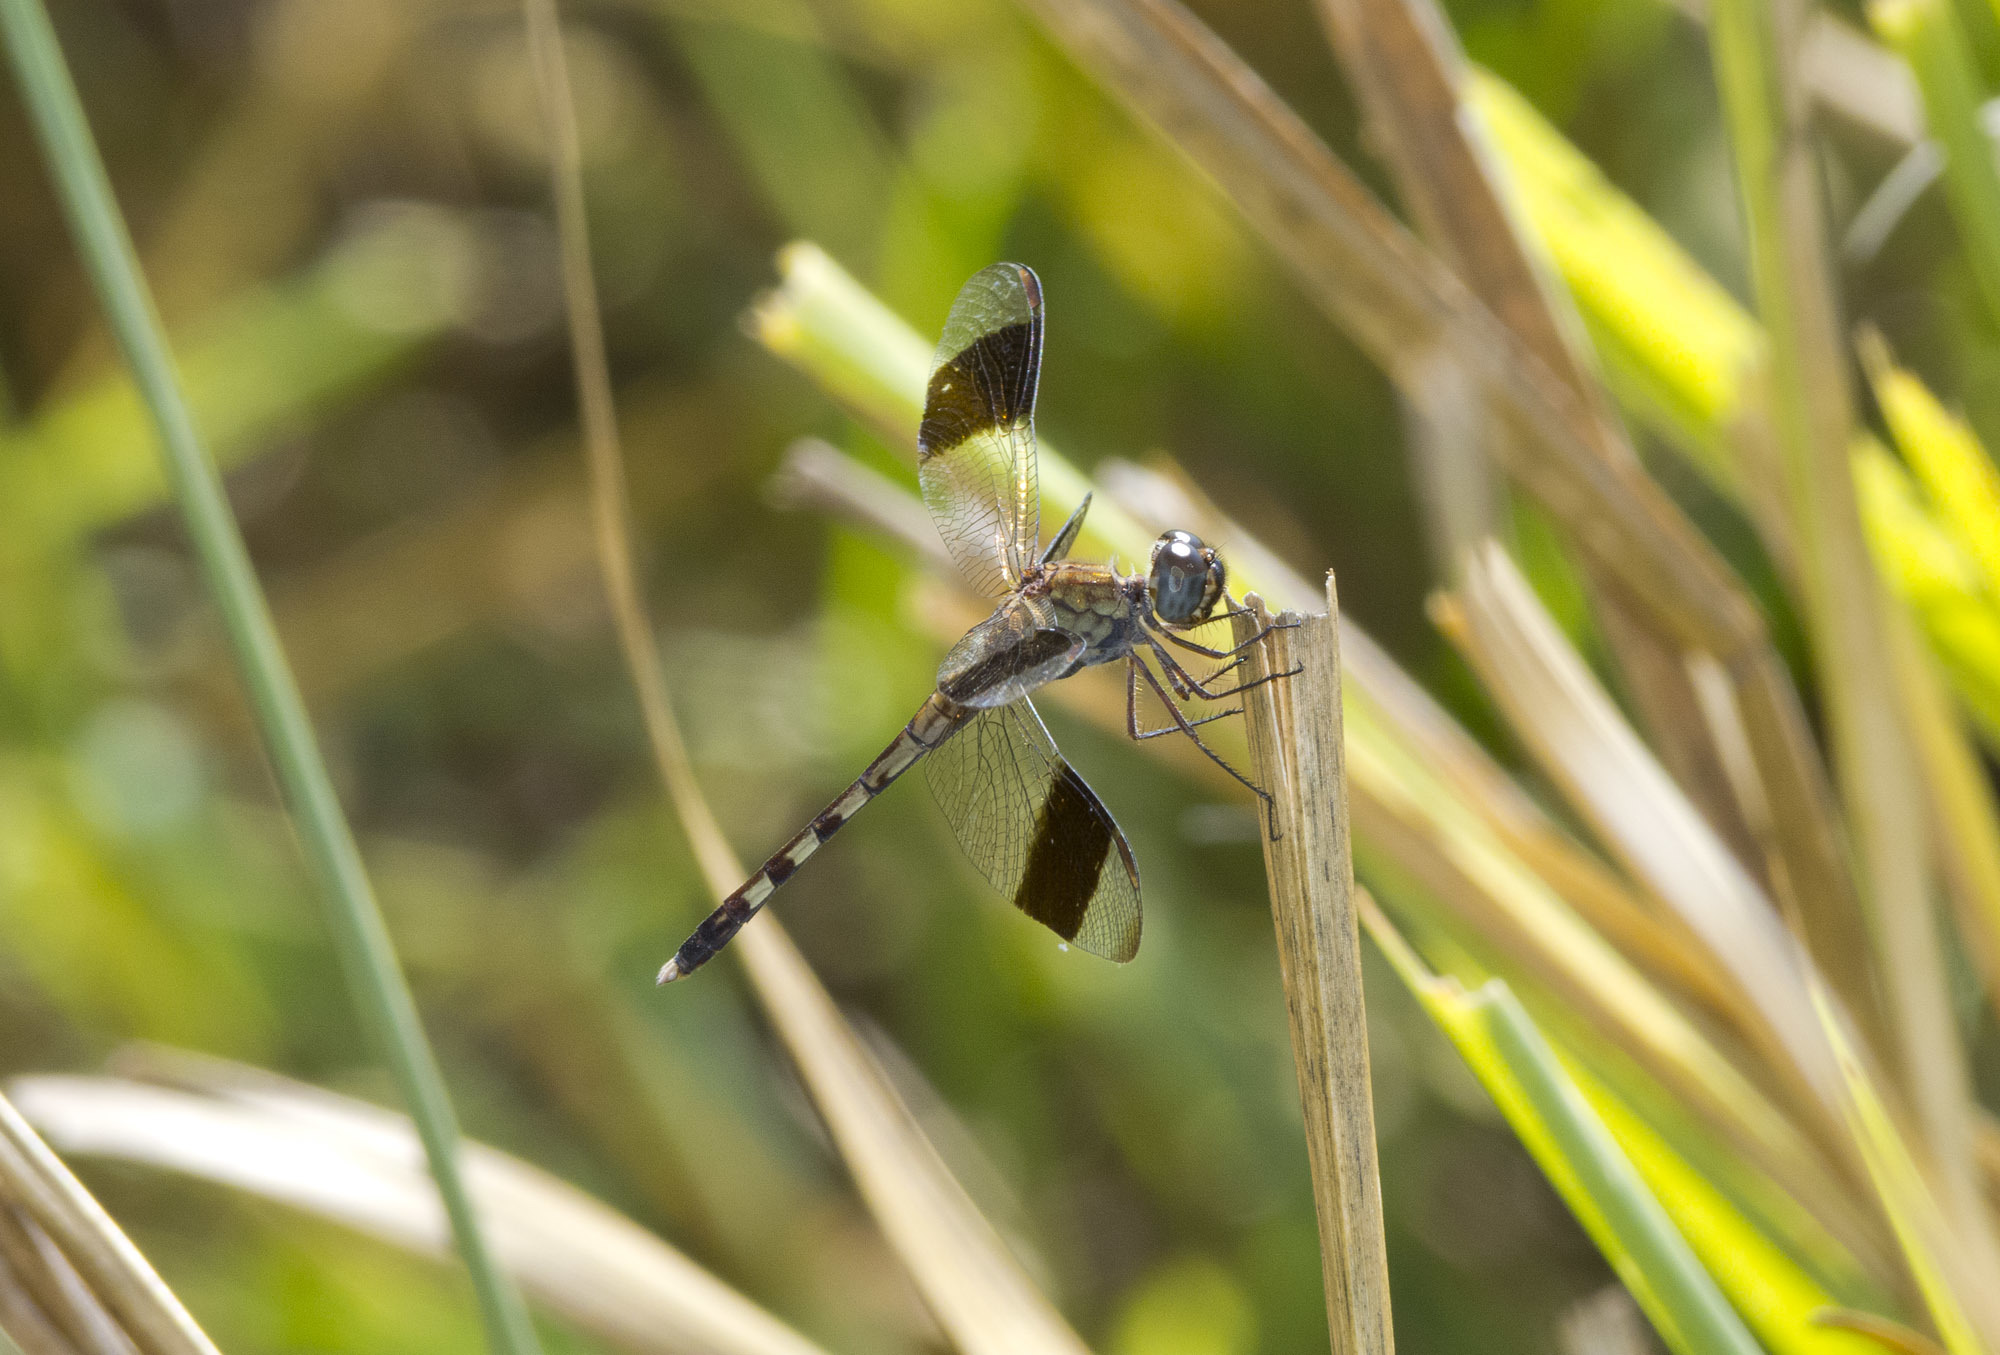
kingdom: Animalia
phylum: Arthropoda
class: Insecta
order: Odonata
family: Libellulidae
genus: Erythrodiplax
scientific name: Erythrodiplax umbrata
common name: Band-winged dragonlet
